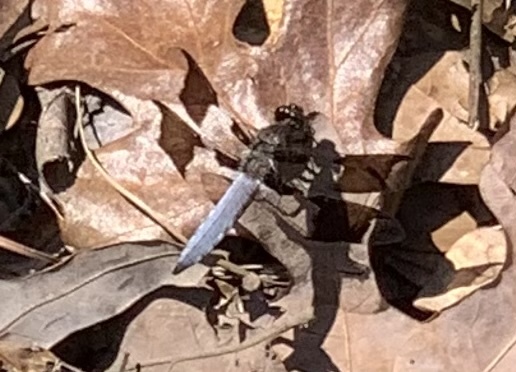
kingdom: Animalia
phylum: Arthropoda
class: Insecta
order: Odonata
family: Libellulidae
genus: Plathemis
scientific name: Plathemis lydia
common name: Common whitetail
